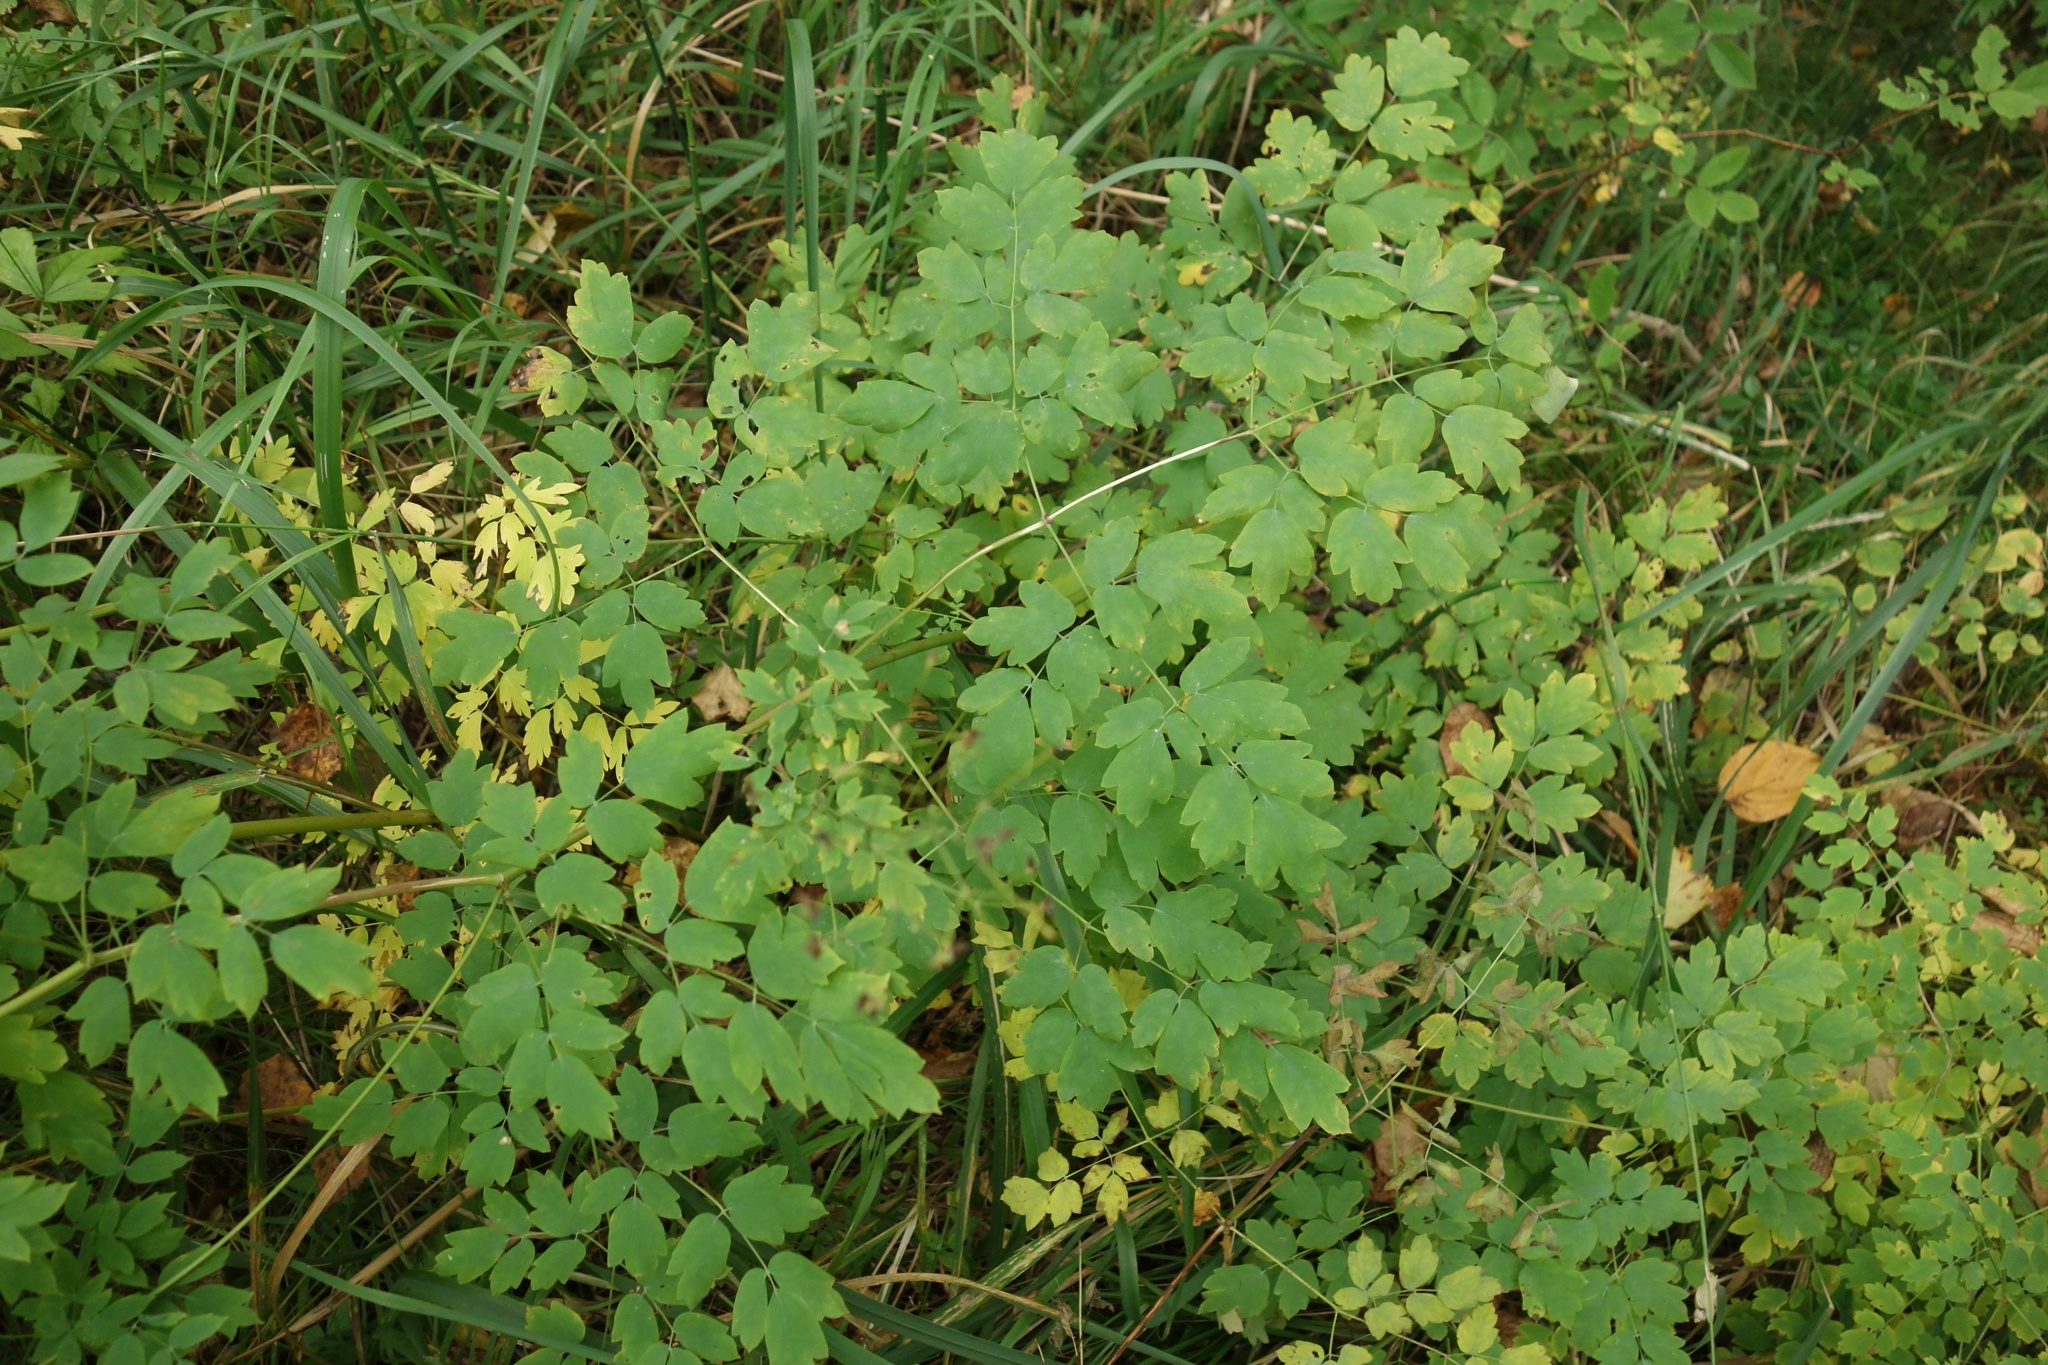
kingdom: Plantae
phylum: Tracheophyta
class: Magnoliopsida
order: Ranunculales
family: Ranunculaceae
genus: Thalictrum
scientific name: Thalictrum minus
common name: Lesser meadow-rue
